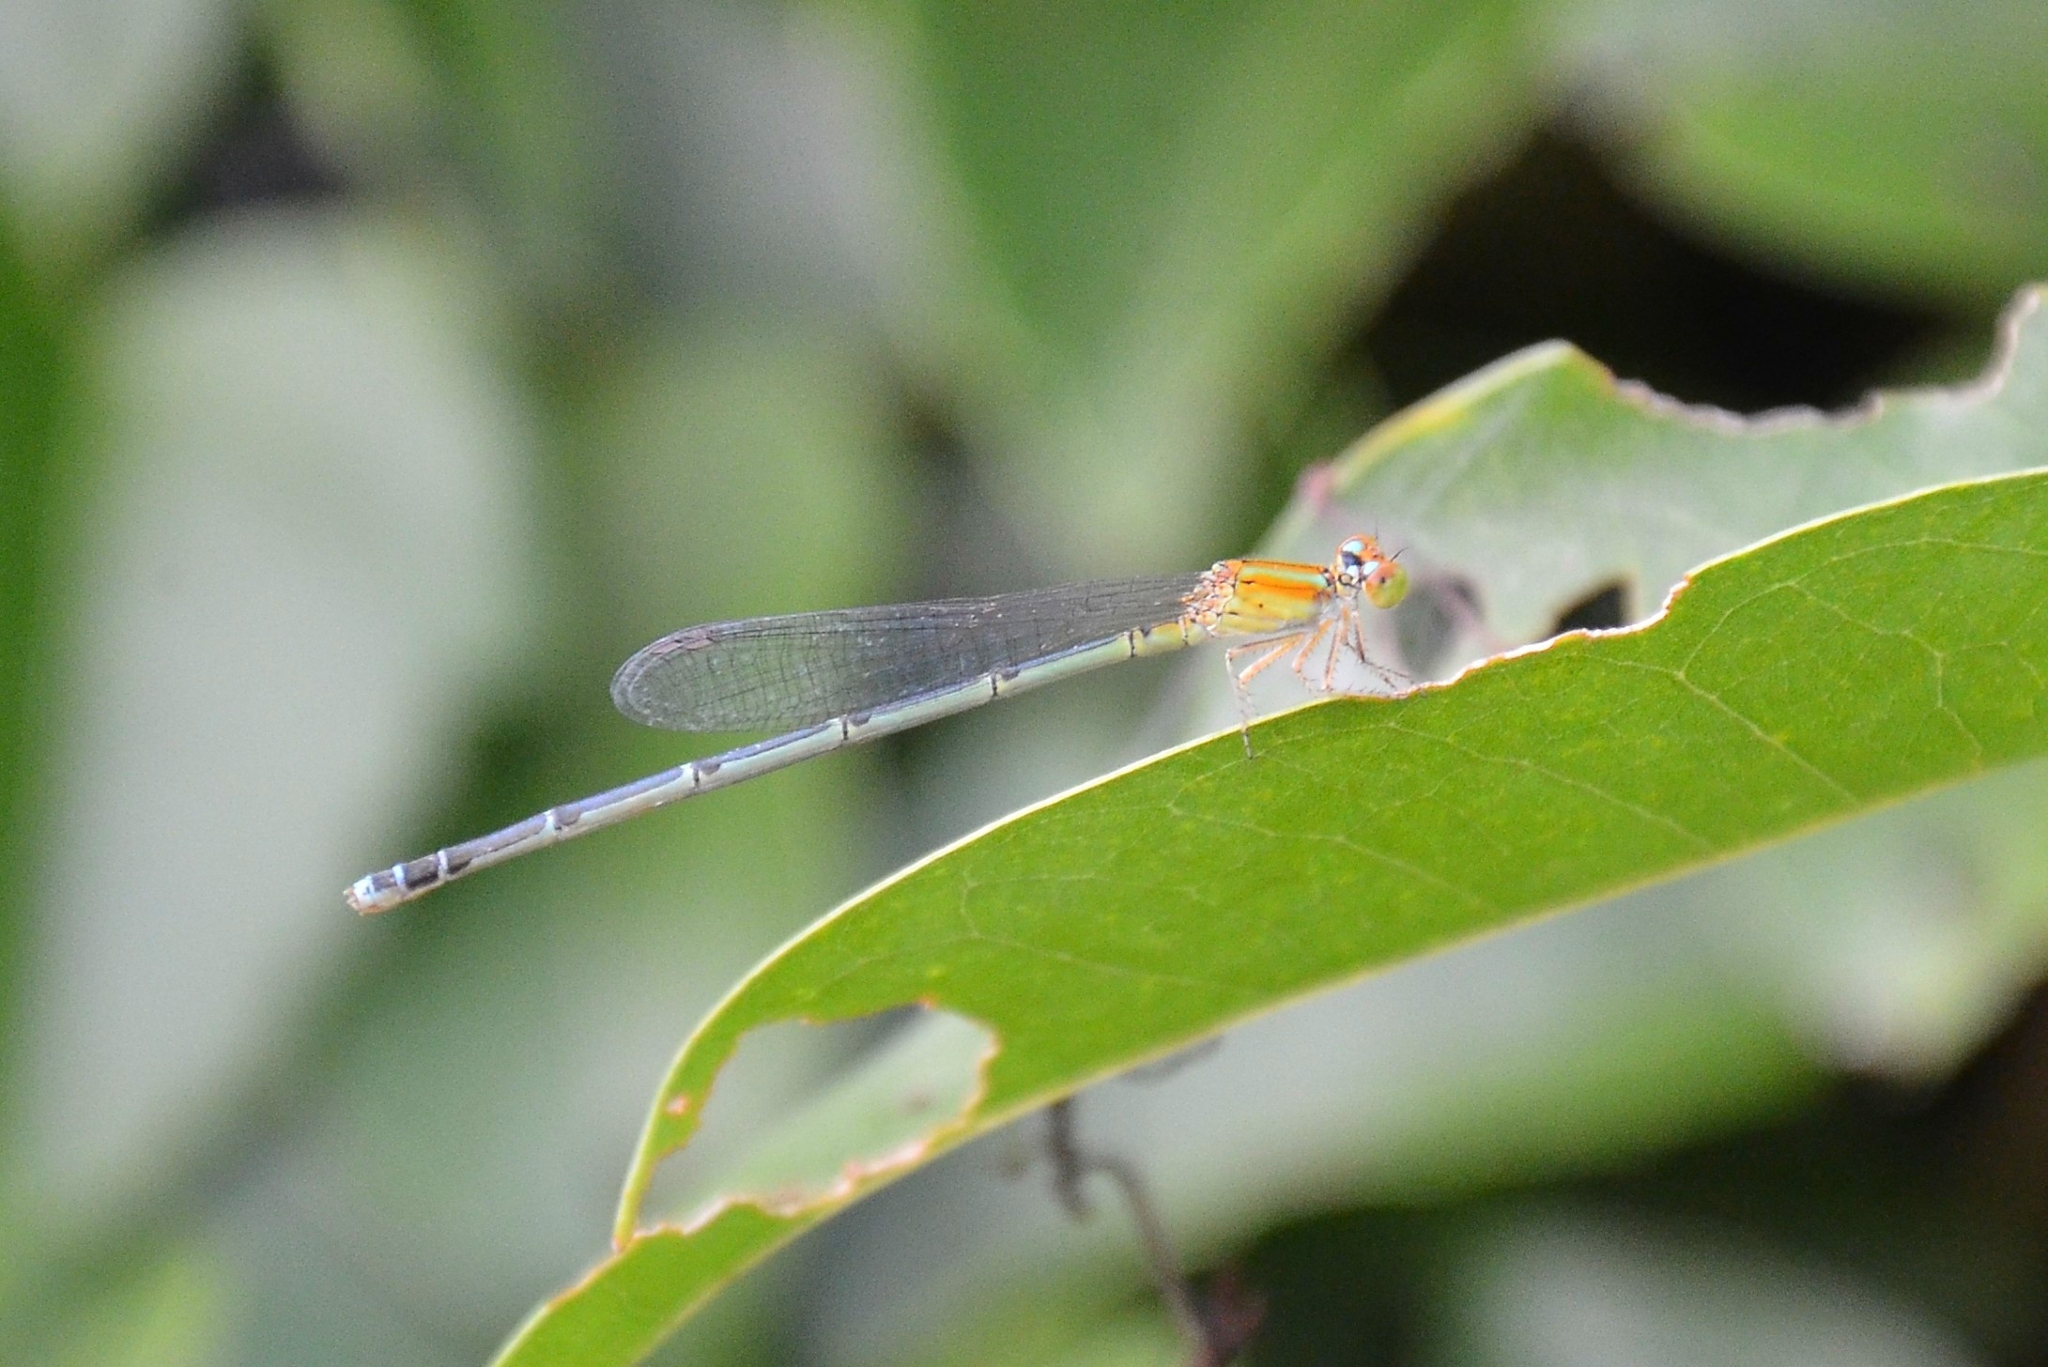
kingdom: Animalia
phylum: Arthropoda
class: Insecta
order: Odonata
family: Coenagrionidae
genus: Pseudagrion
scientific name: Pseudagrion microcephalum
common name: Blue riverdamsel
